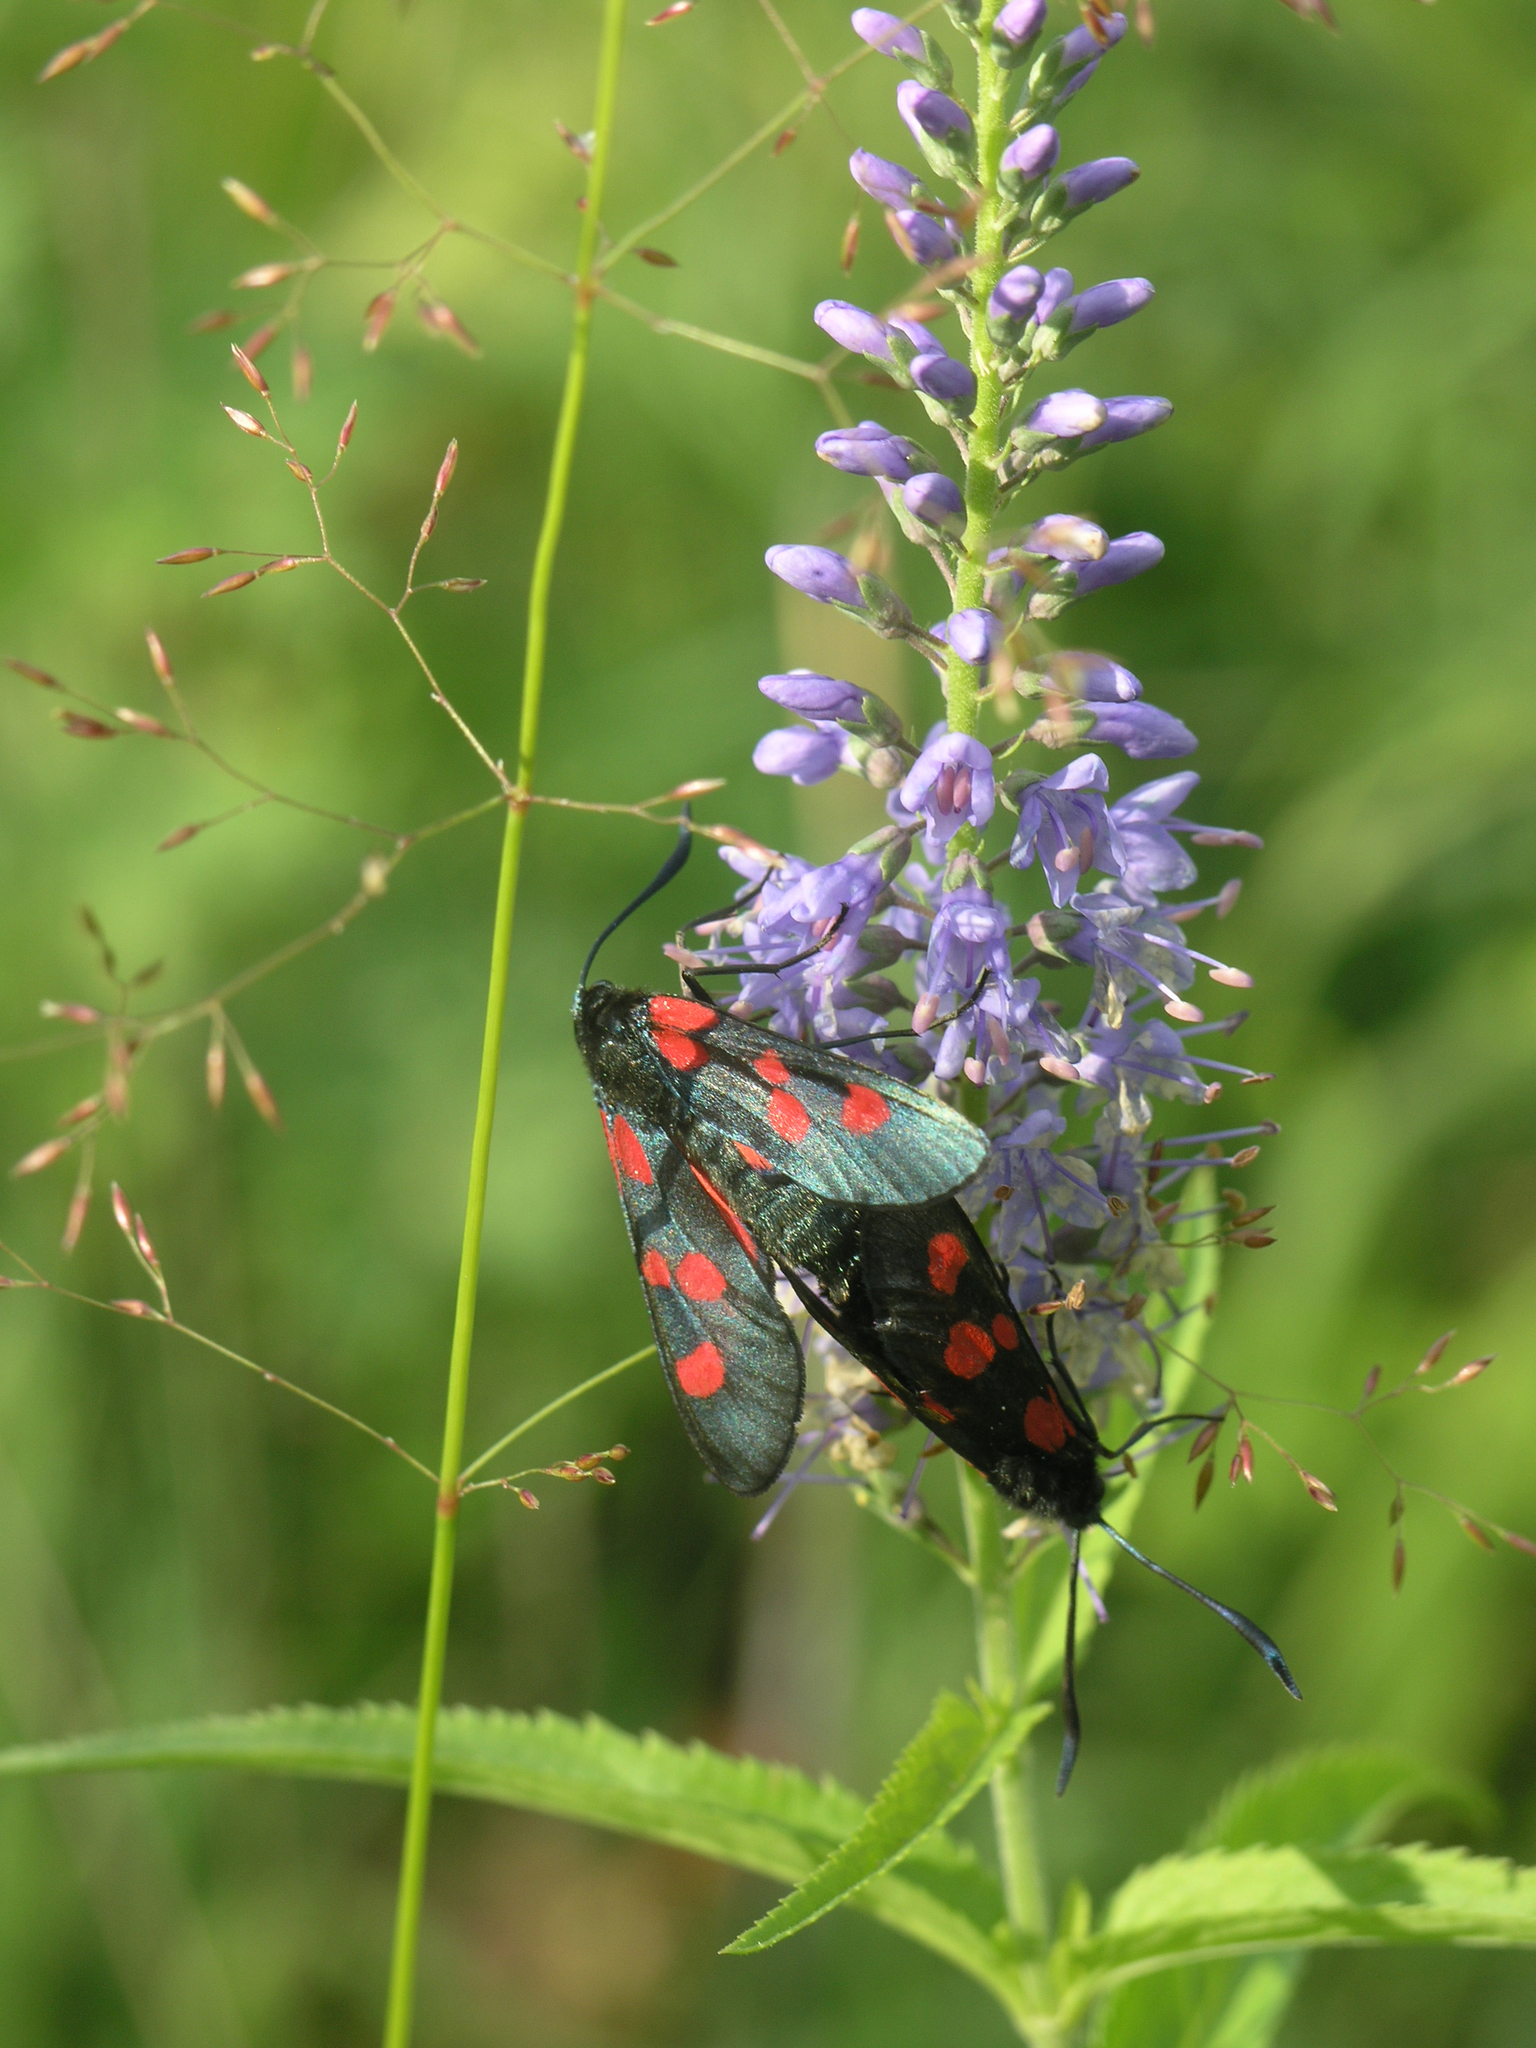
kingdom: Animalia
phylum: Arthropoda
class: Insecta
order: Lepidoptera
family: Zygaenidae
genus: Zygaena
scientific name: Zygaena lonicerae
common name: Narrow-bordered five-spot burnet
